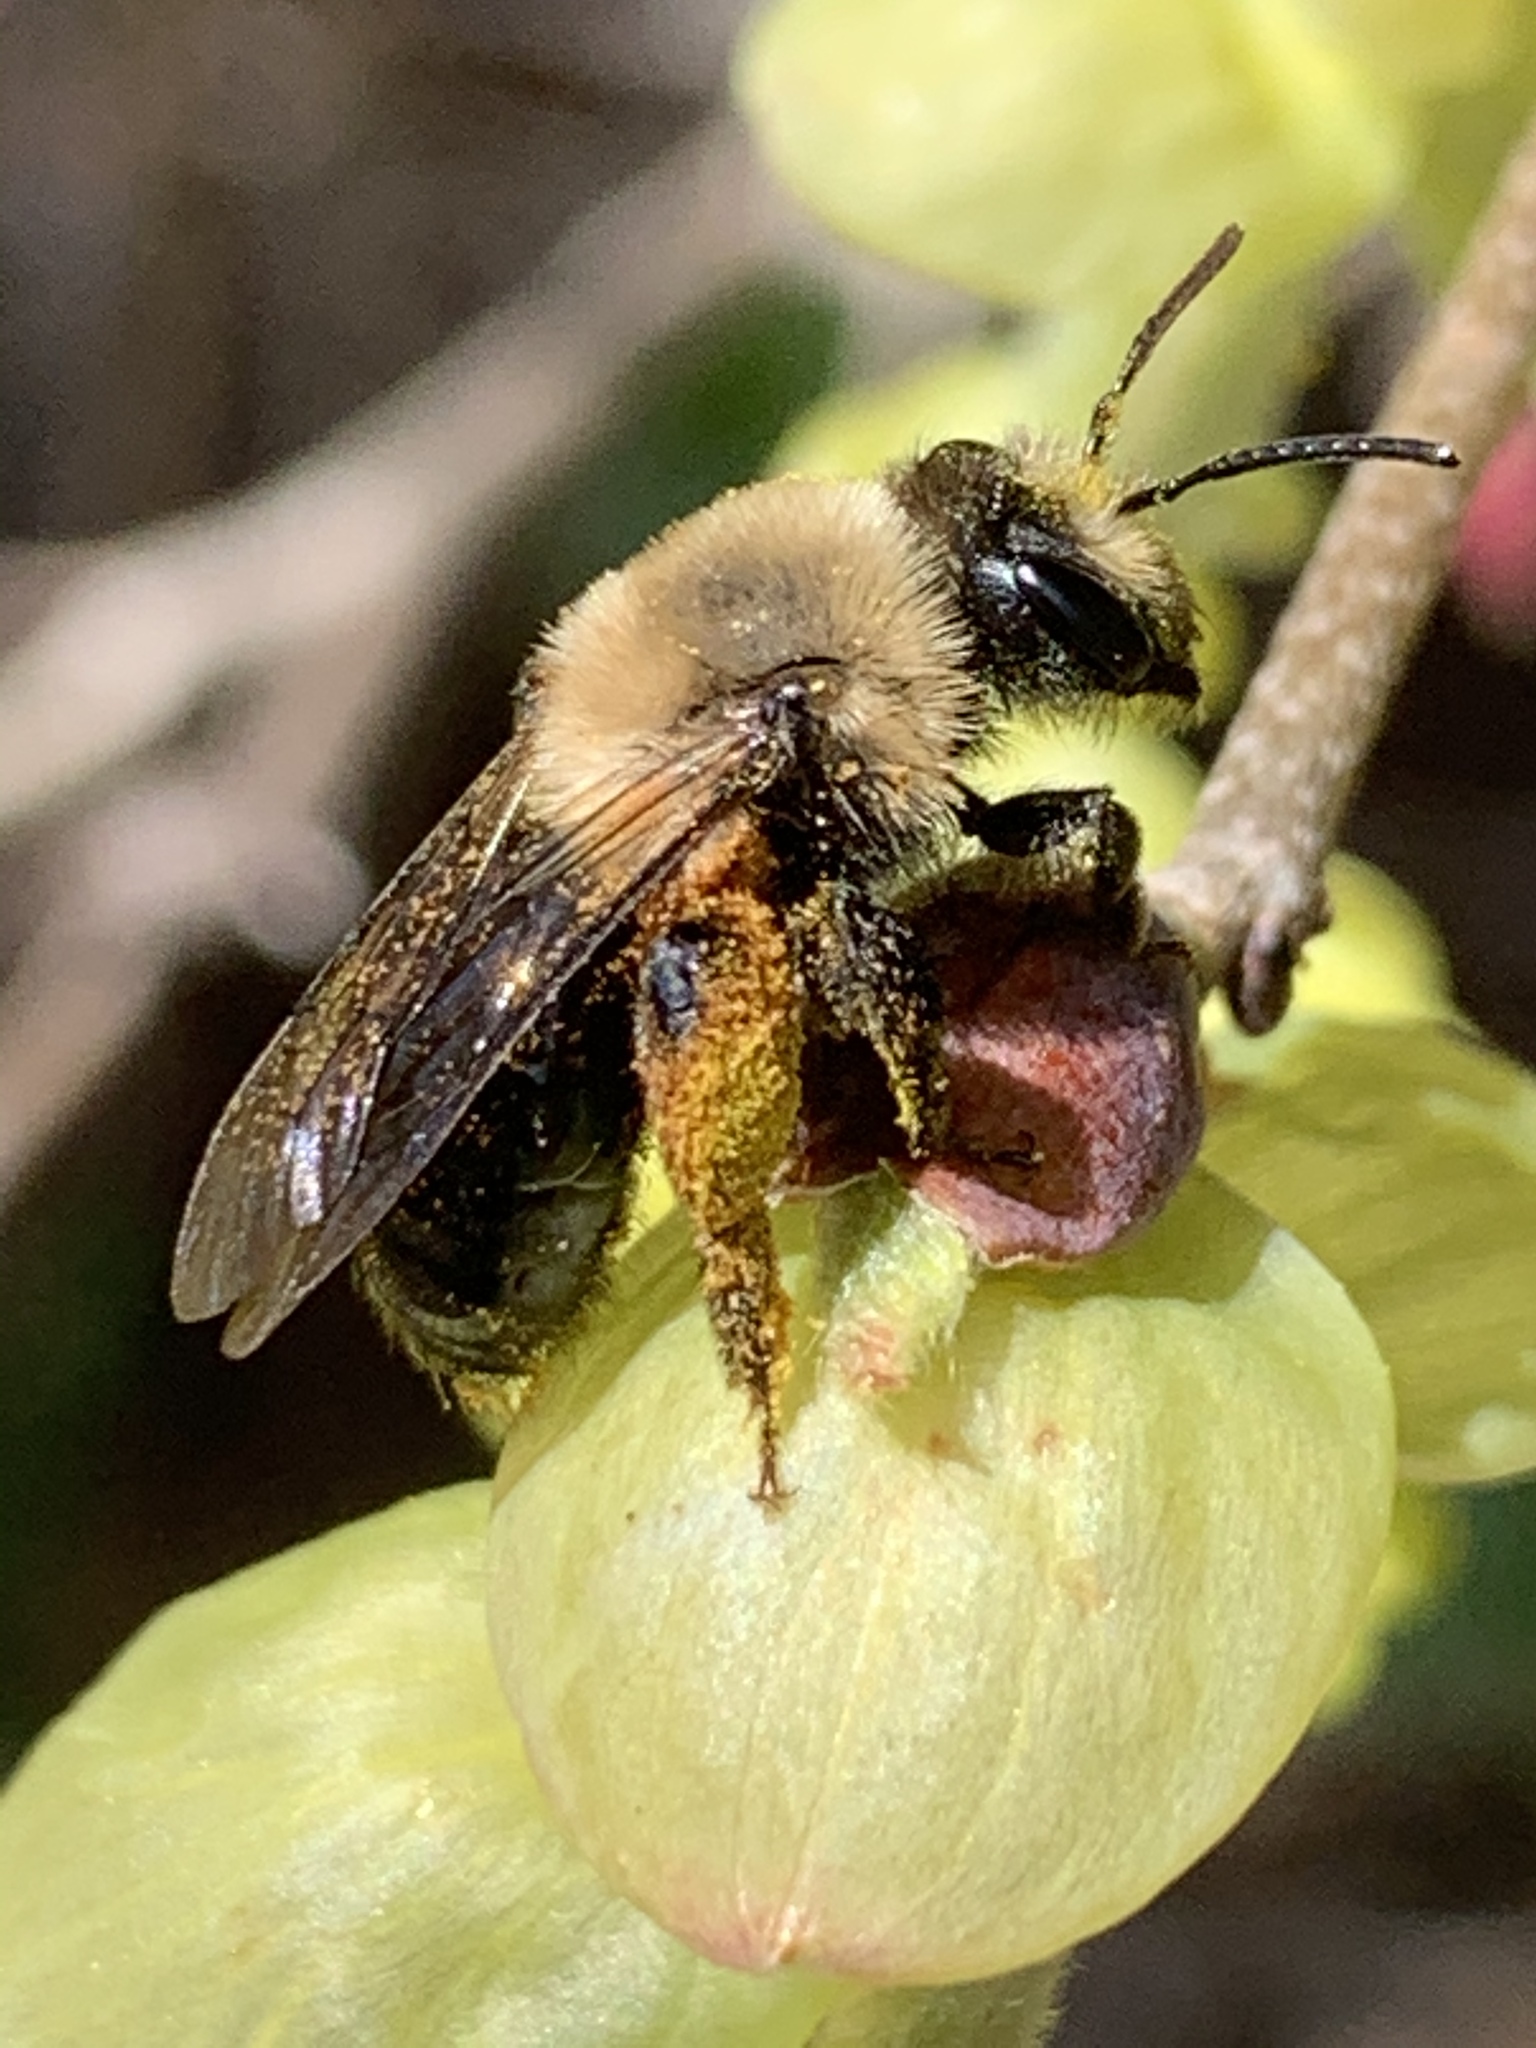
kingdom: Animalia
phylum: Arthropoda
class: Insecta
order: Hymenoptera
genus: Melandrena
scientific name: Melandrena
